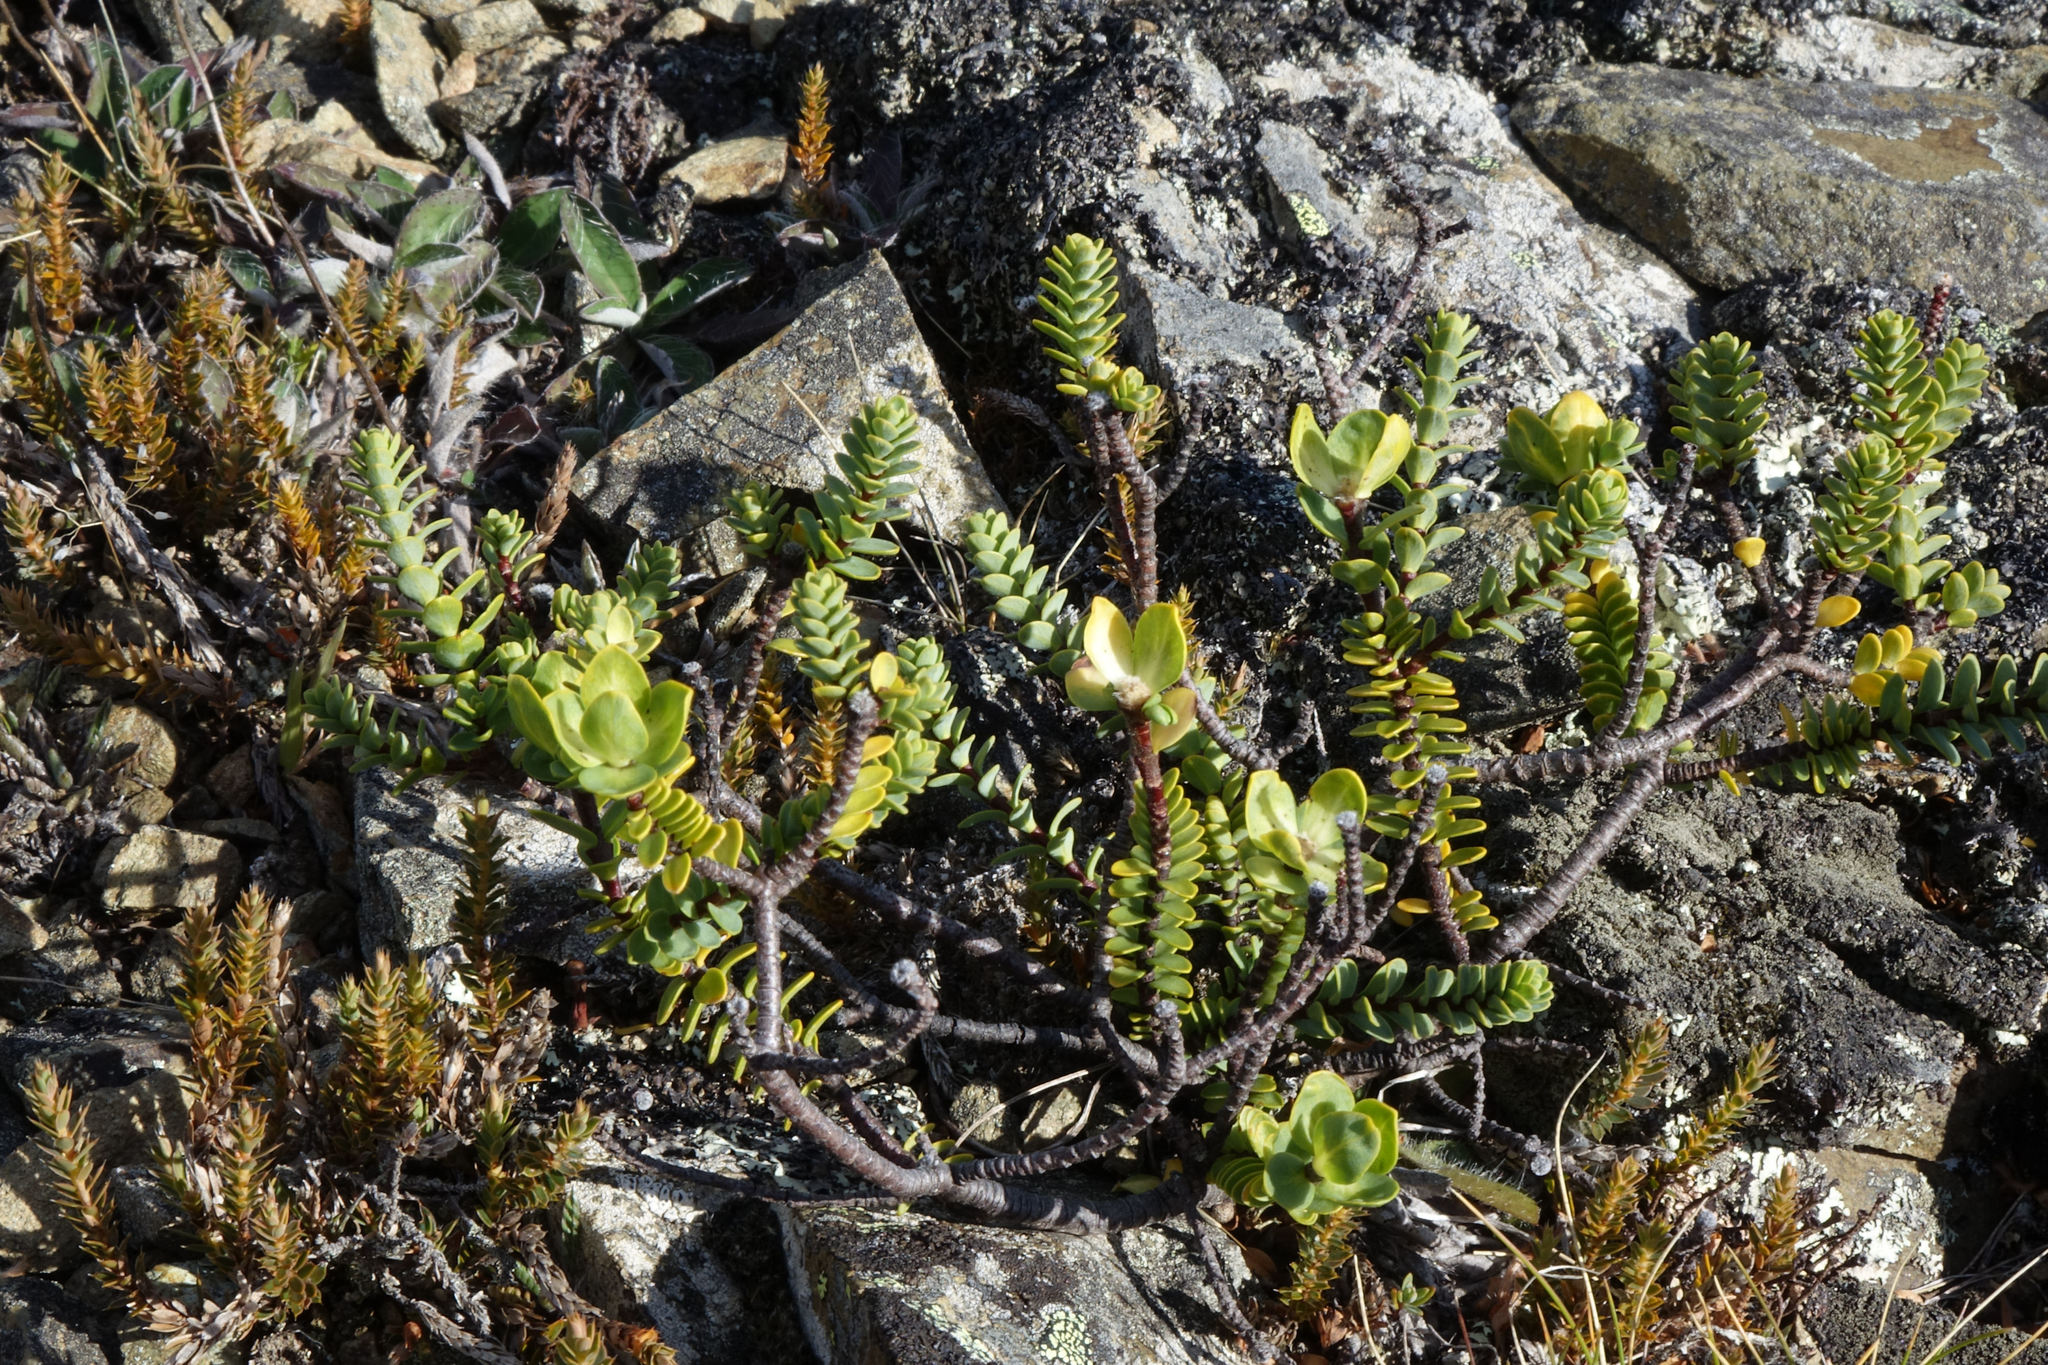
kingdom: Plantae
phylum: Tracheophyta
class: Magnoliopsida
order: Malvales
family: Thymelaeaceae
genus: Pimelea
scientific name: Pimelea traversii
